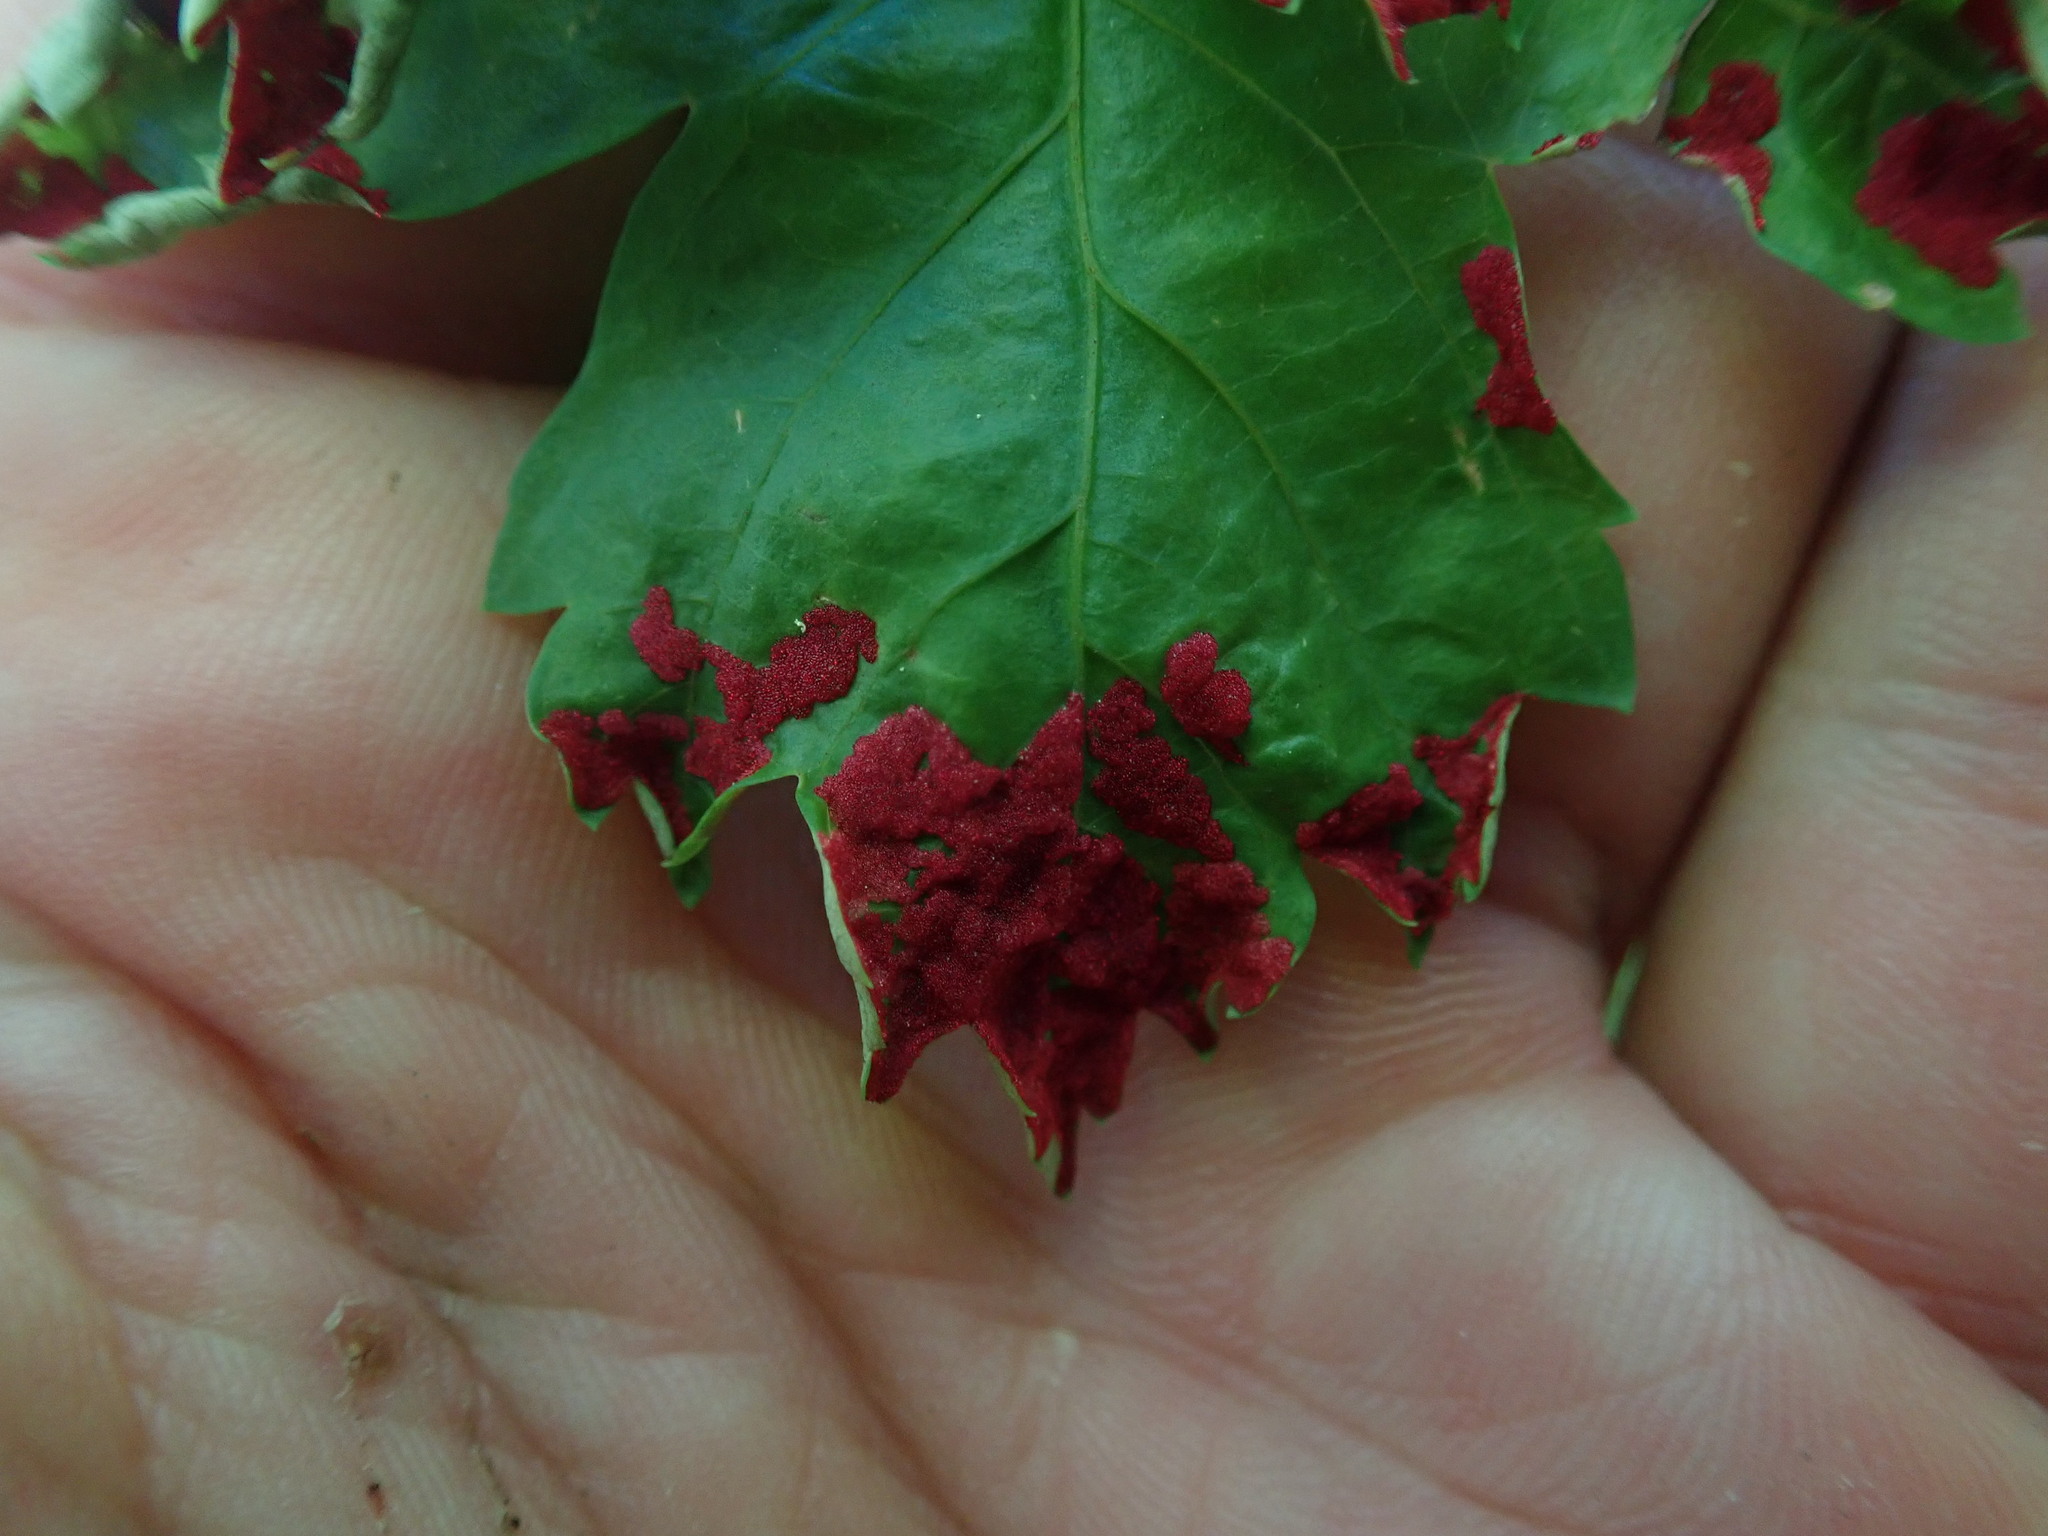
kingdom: Animalia
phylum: Arthropoda
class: Arachnida
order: Trombidiformes
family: Eriophyidae
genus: Aceria
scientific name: Aceria
